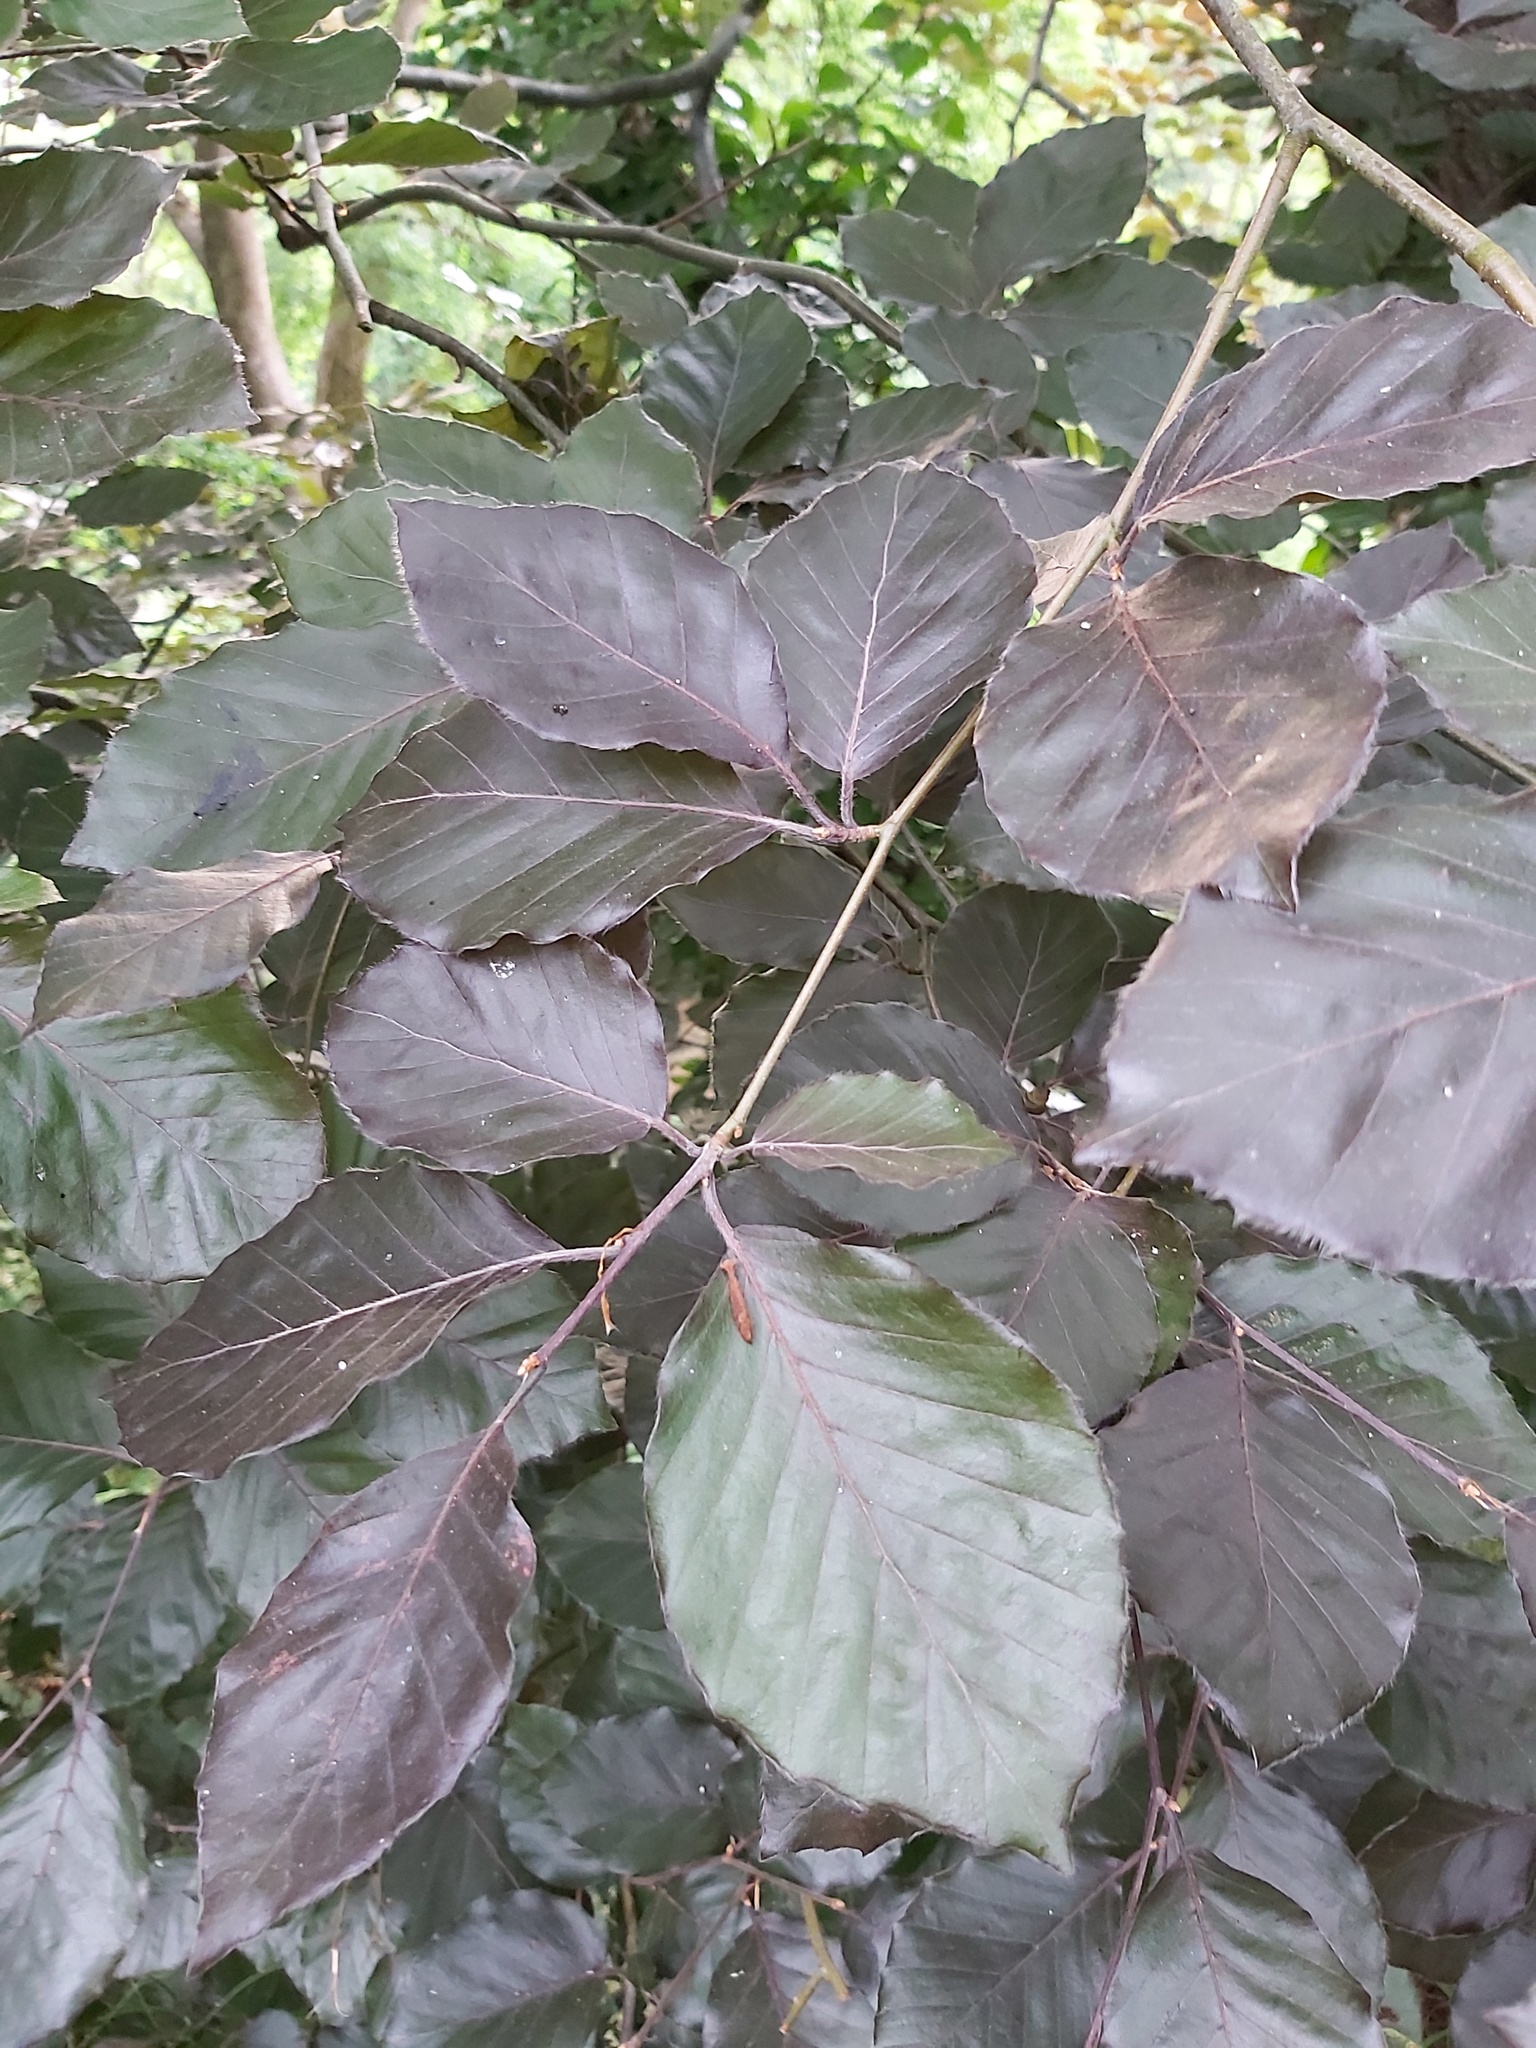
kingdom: Plantae
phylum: Tracheophyta
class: Magnoliopsida
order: Fagales
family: Fagaceae
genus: Fagus
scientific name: Fagus sylvatica
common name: Beech
